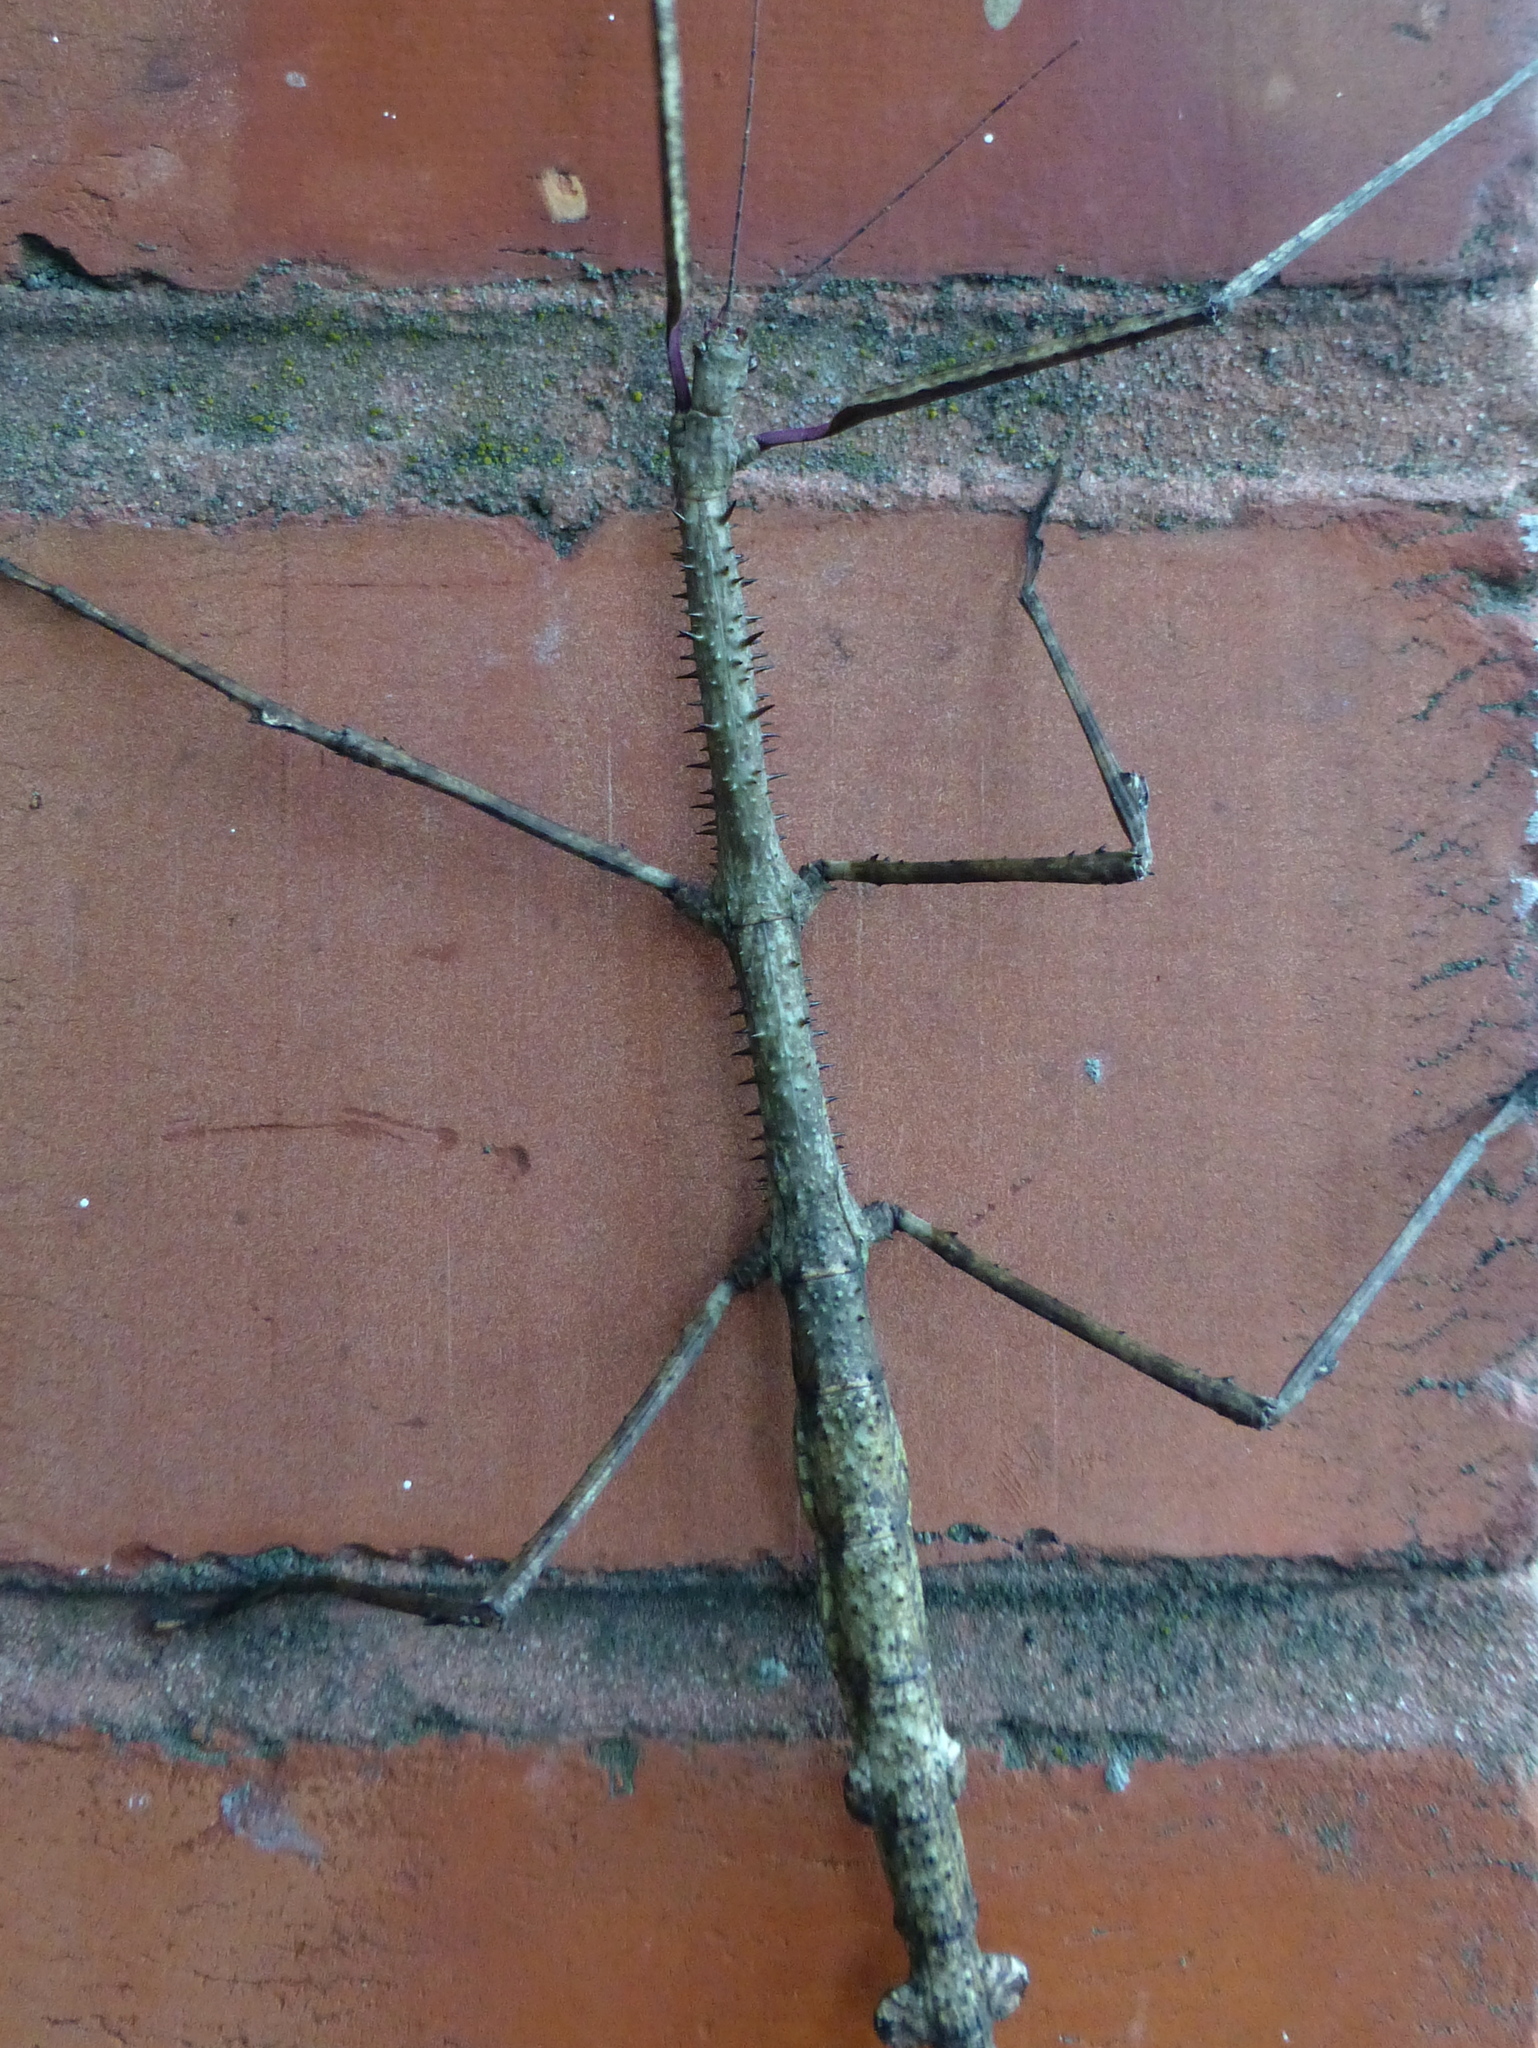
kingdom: Animalia
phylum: Arthropoda
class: Insecta
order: Phasmida
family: Phasmatidae
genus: Argosarchus
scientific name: Argosarchus horridus
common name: Bristly stick insect
